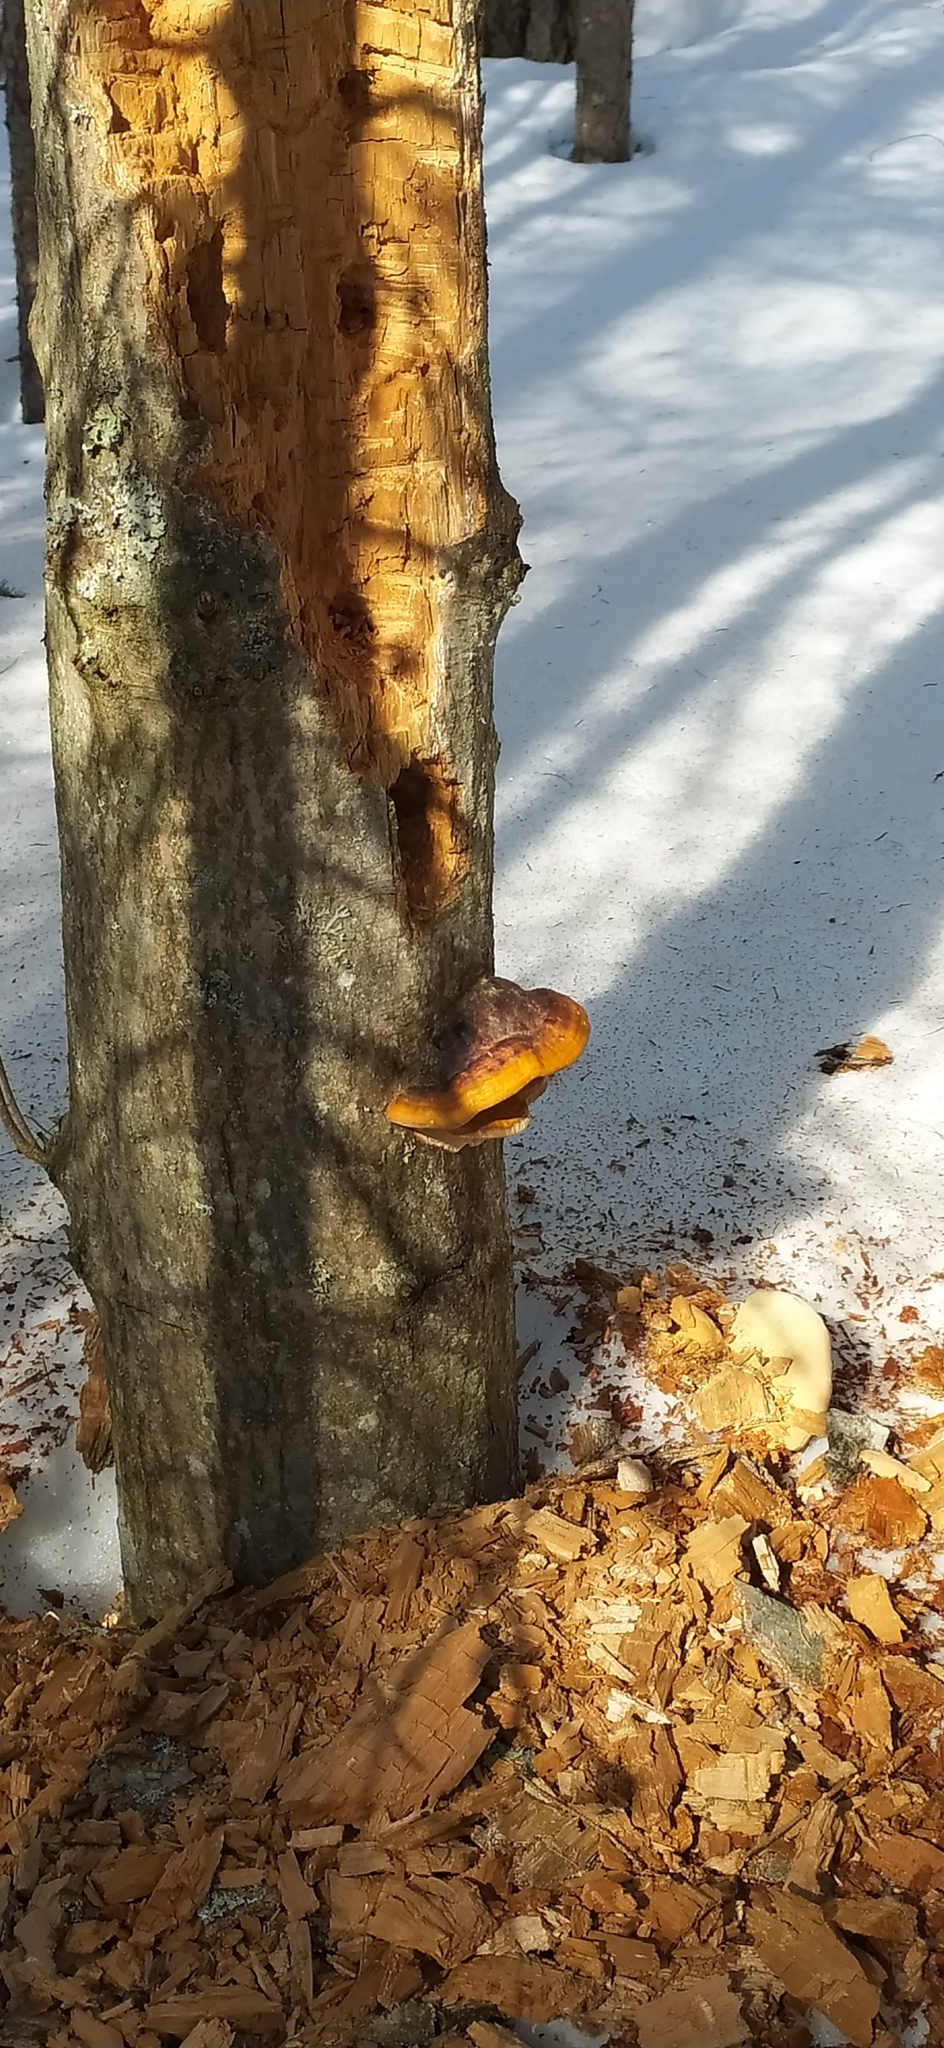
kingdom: Fungi
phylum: Basidiomycota
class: Agaricomycetes
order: Polyporales
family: Fomitopsidaceae
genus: Fomitopsis
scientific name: Fomitopsis pinicola
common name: Red-belted bracket
